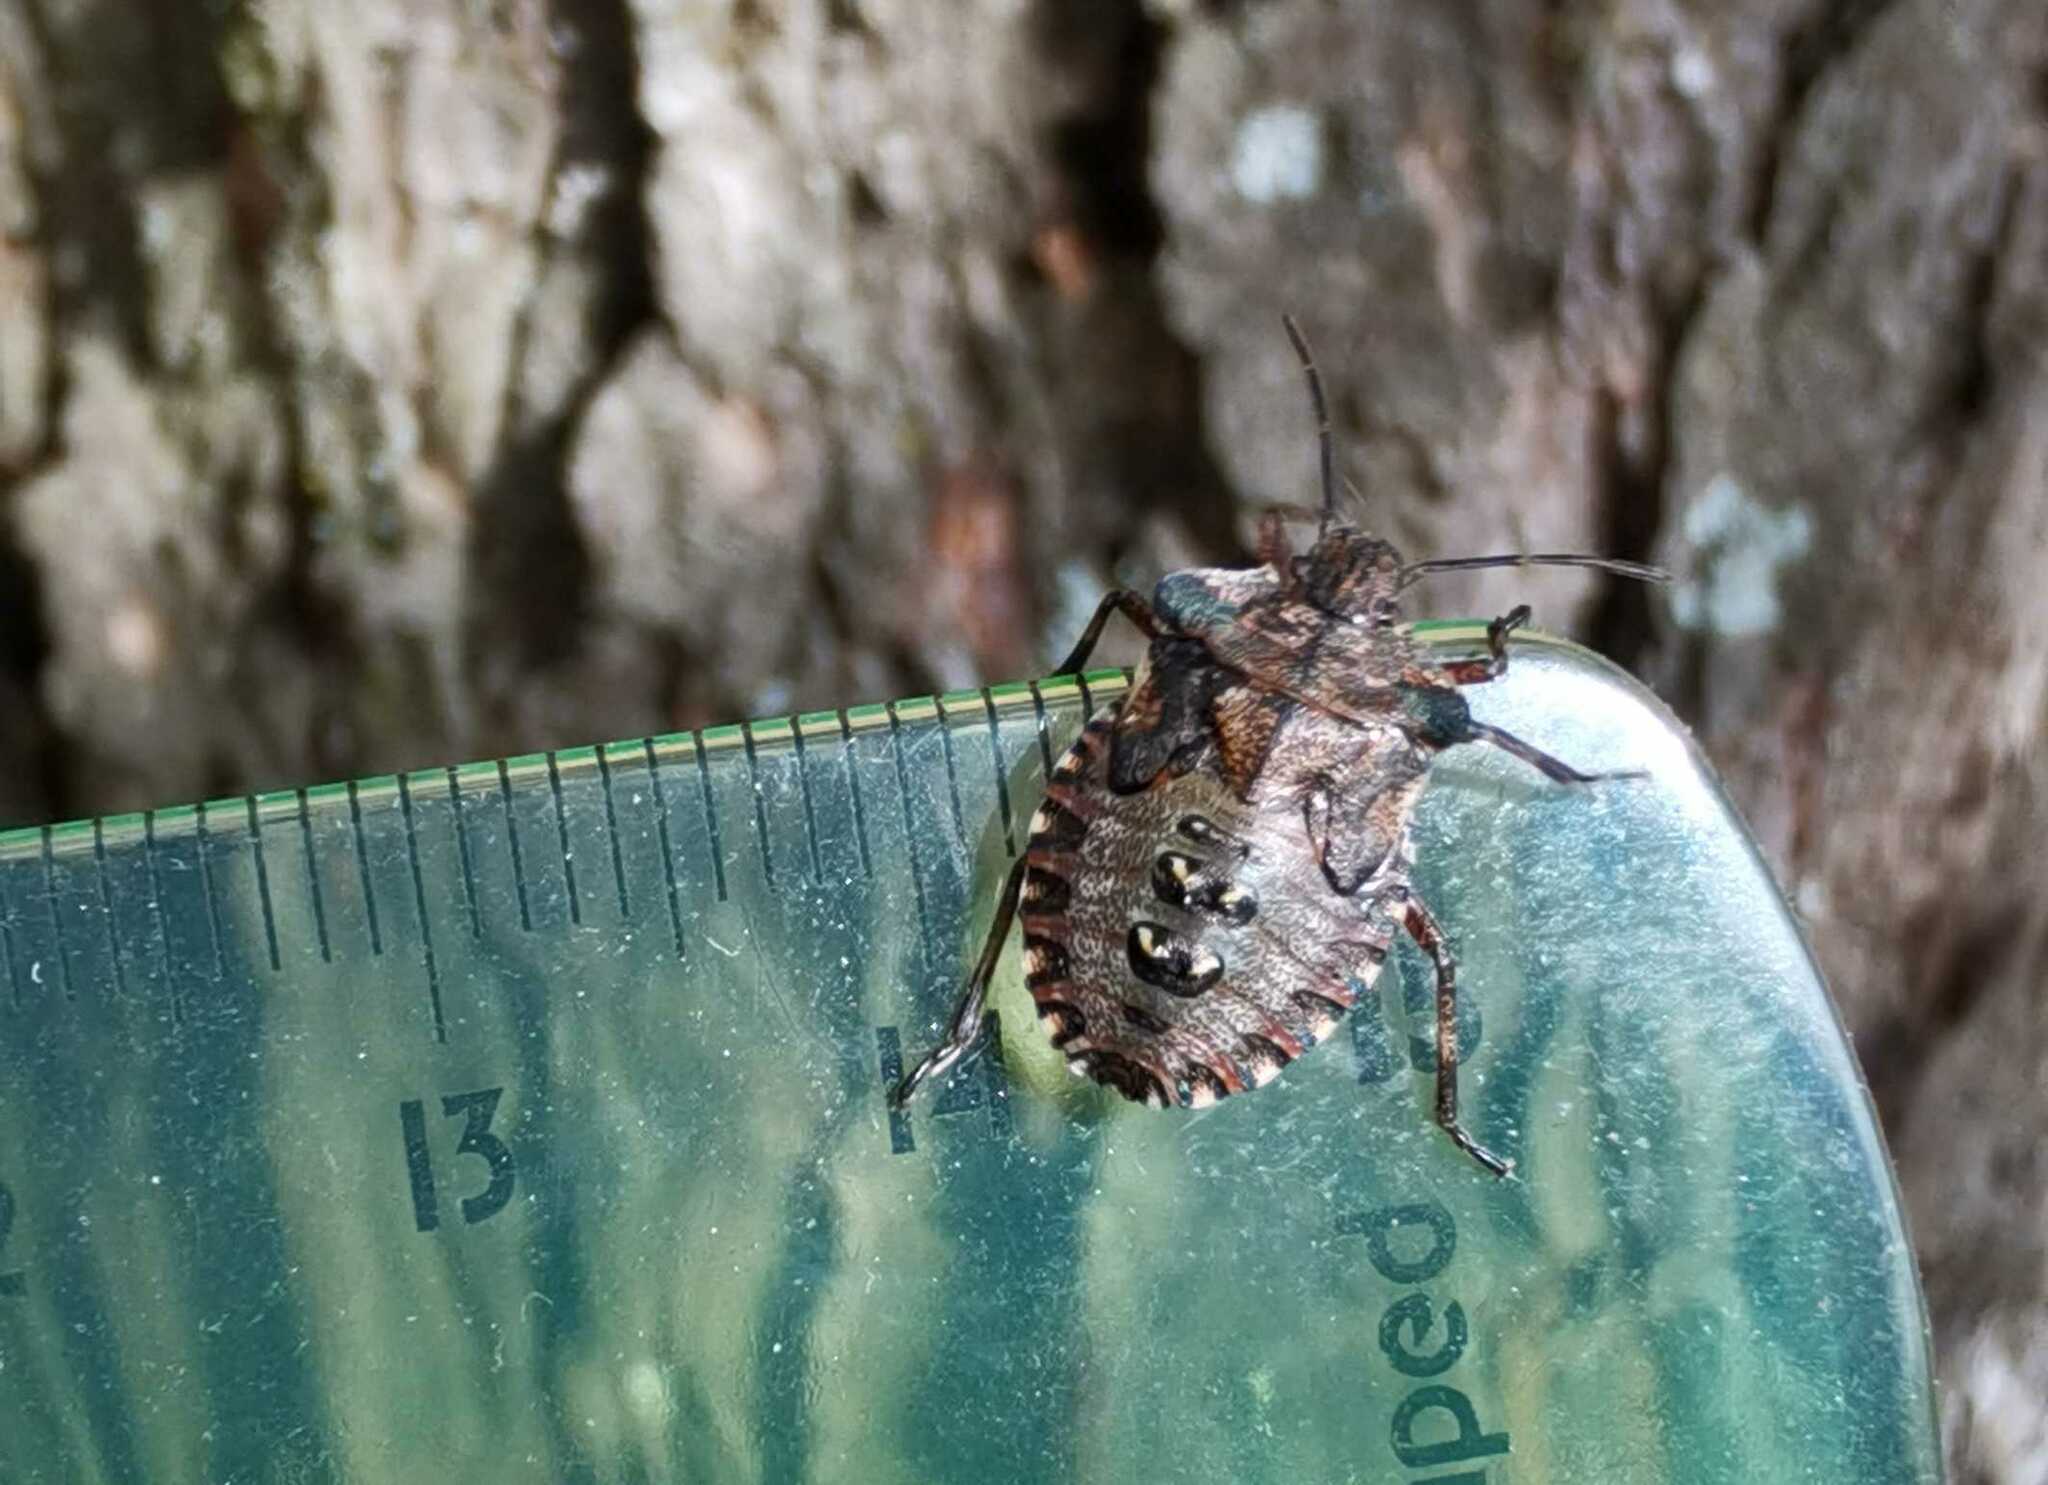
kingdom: Animalia
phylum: Arthropoda
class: Insecta
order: Hemiptera
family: Pentatomidae
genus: Pentatoma
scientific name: Pentatoma rufipes
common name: Forest bug
